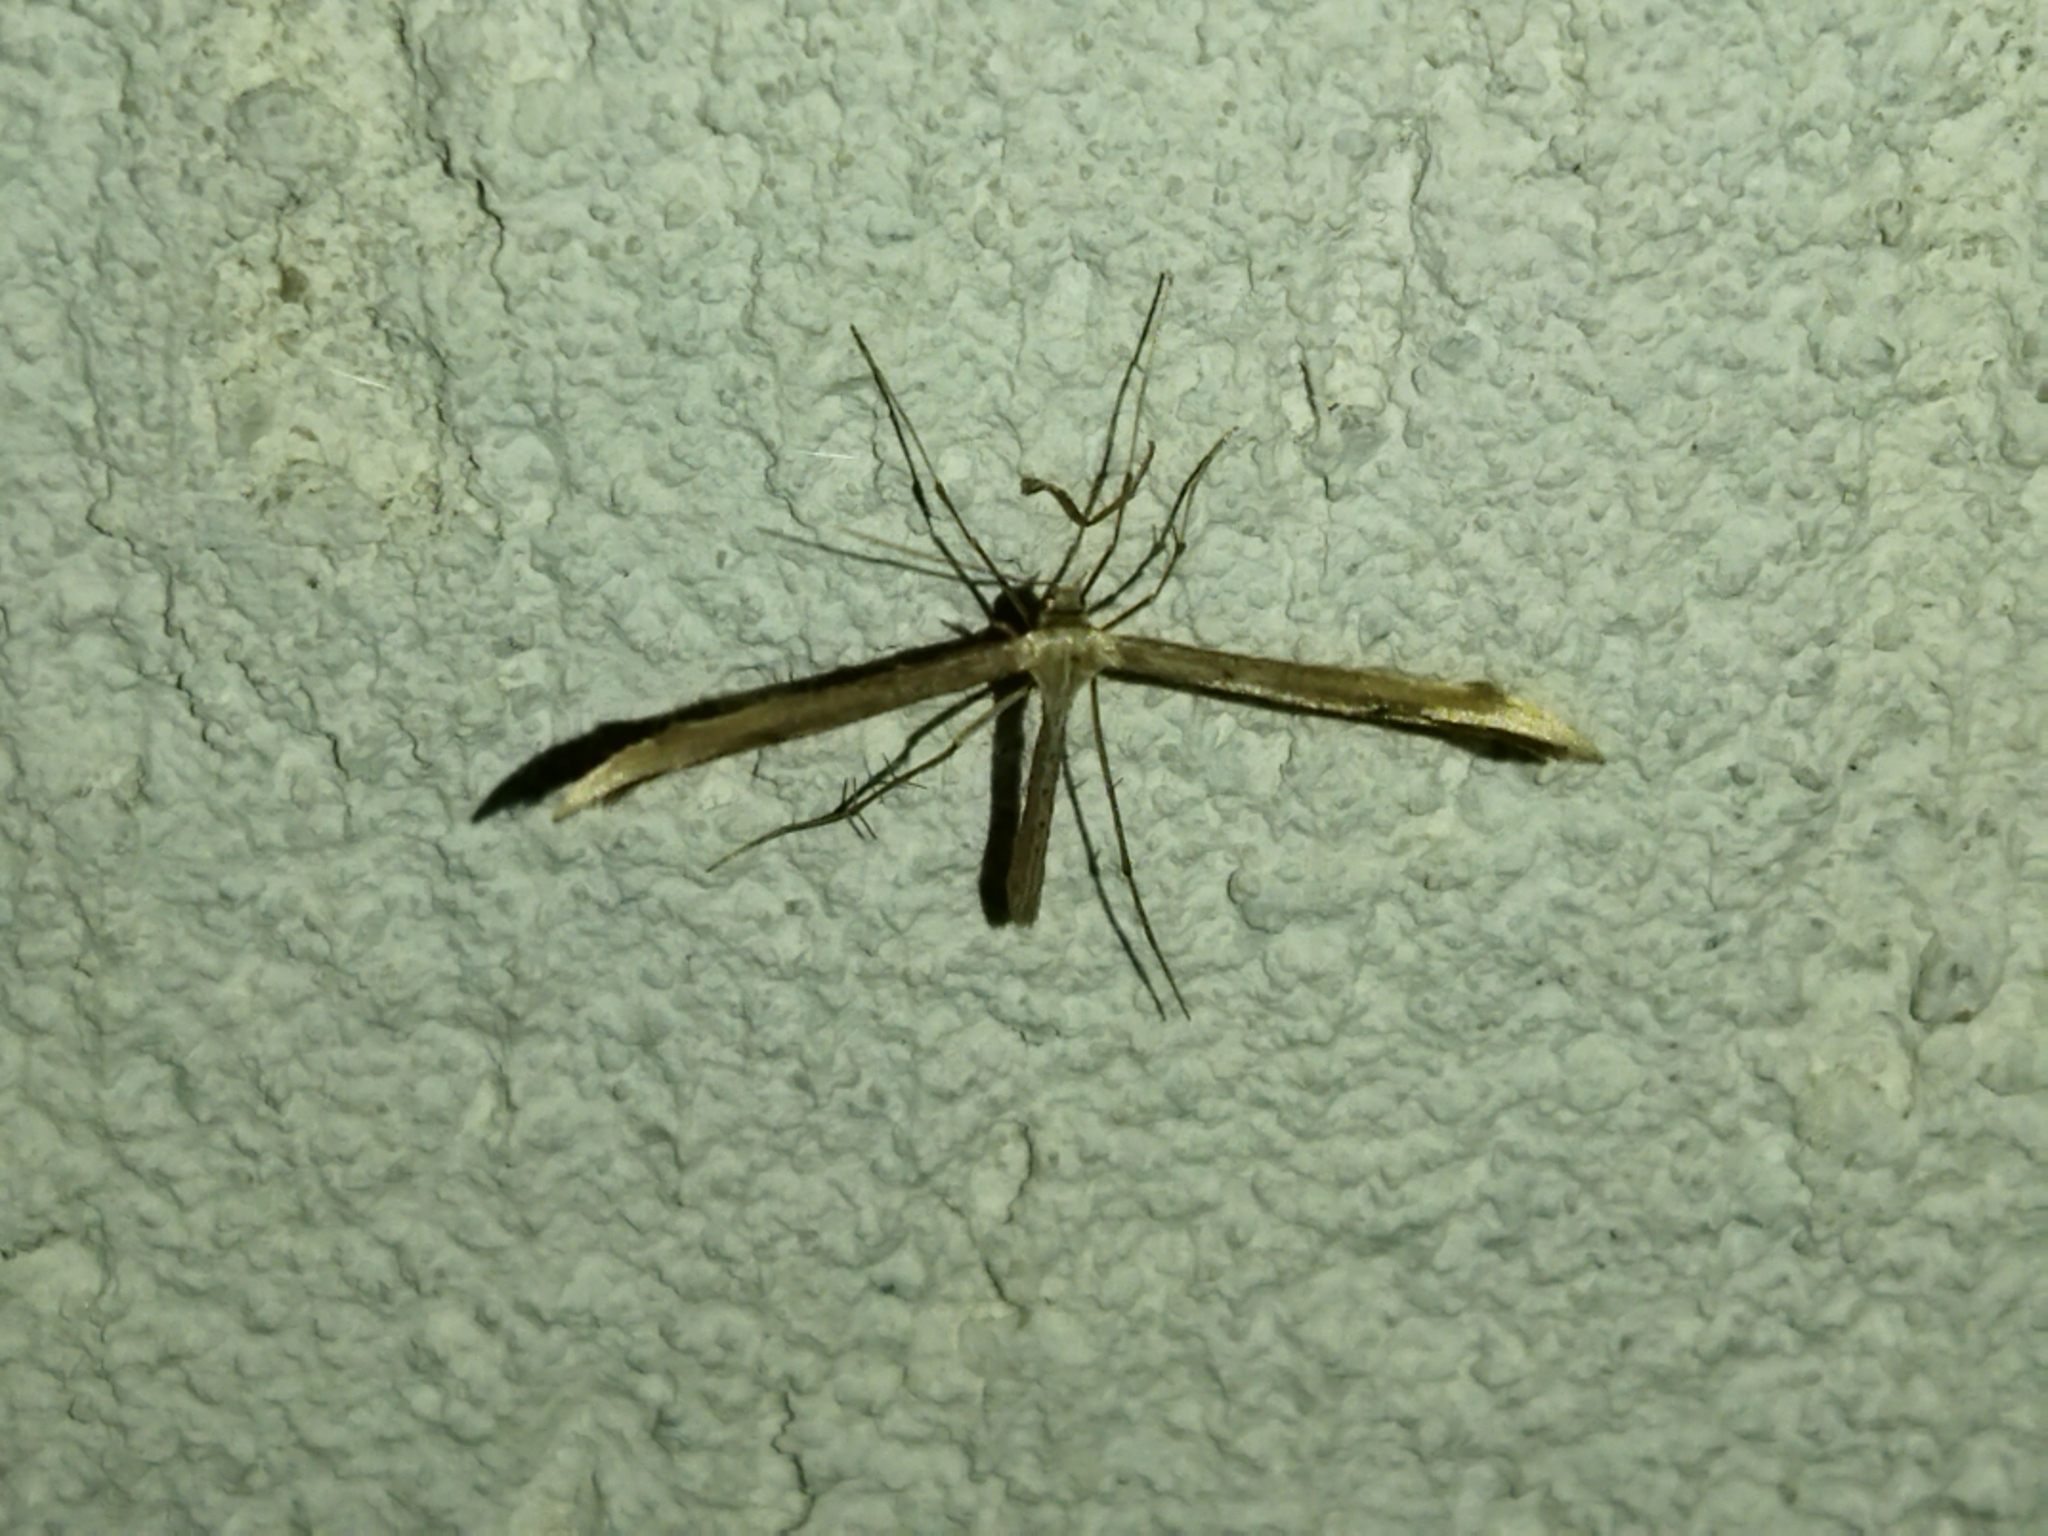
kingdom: Animalia
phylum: Arthropoda
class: Insecta
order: Lepidoptera
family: Pterophoridae
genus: Emmelina
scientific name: Emmelina monodactyla
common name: Common plume
